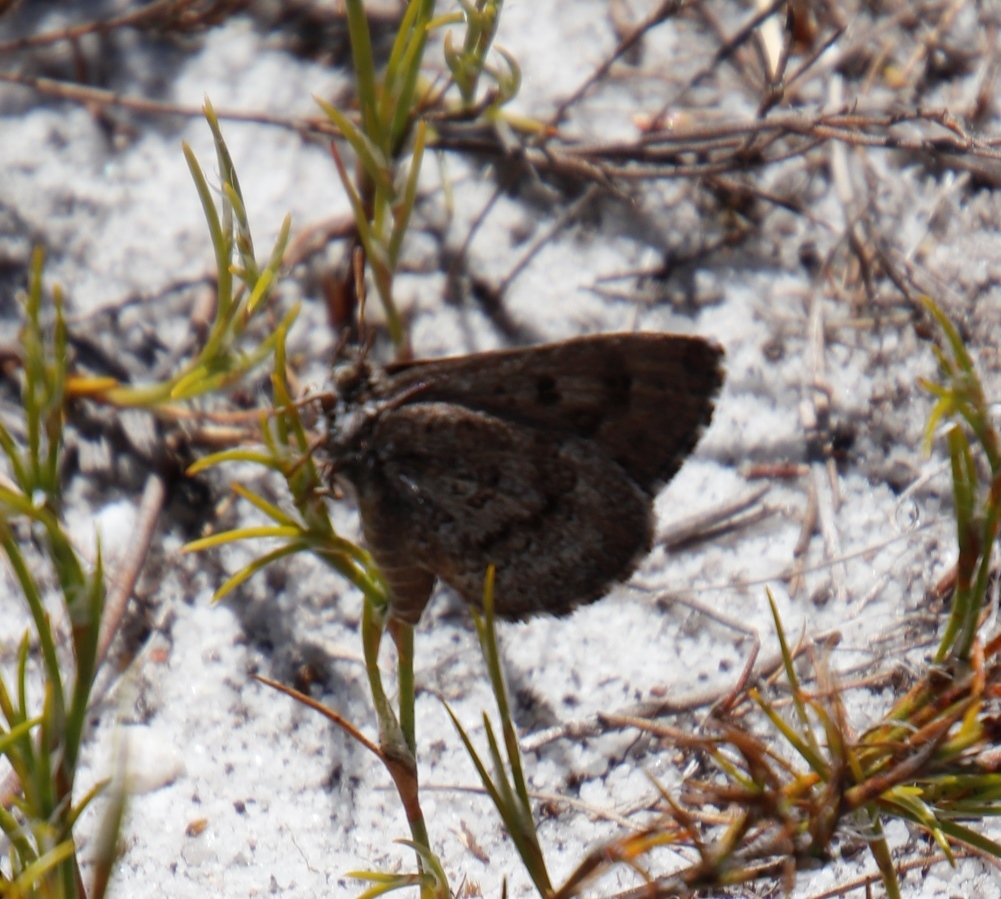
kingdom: Animalia
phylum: Arthropoda
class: Insecta
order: Lepidoptera
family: Lycaenidae
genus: Thestor
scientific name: Thestor yildizae
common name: Peninsula skolly
